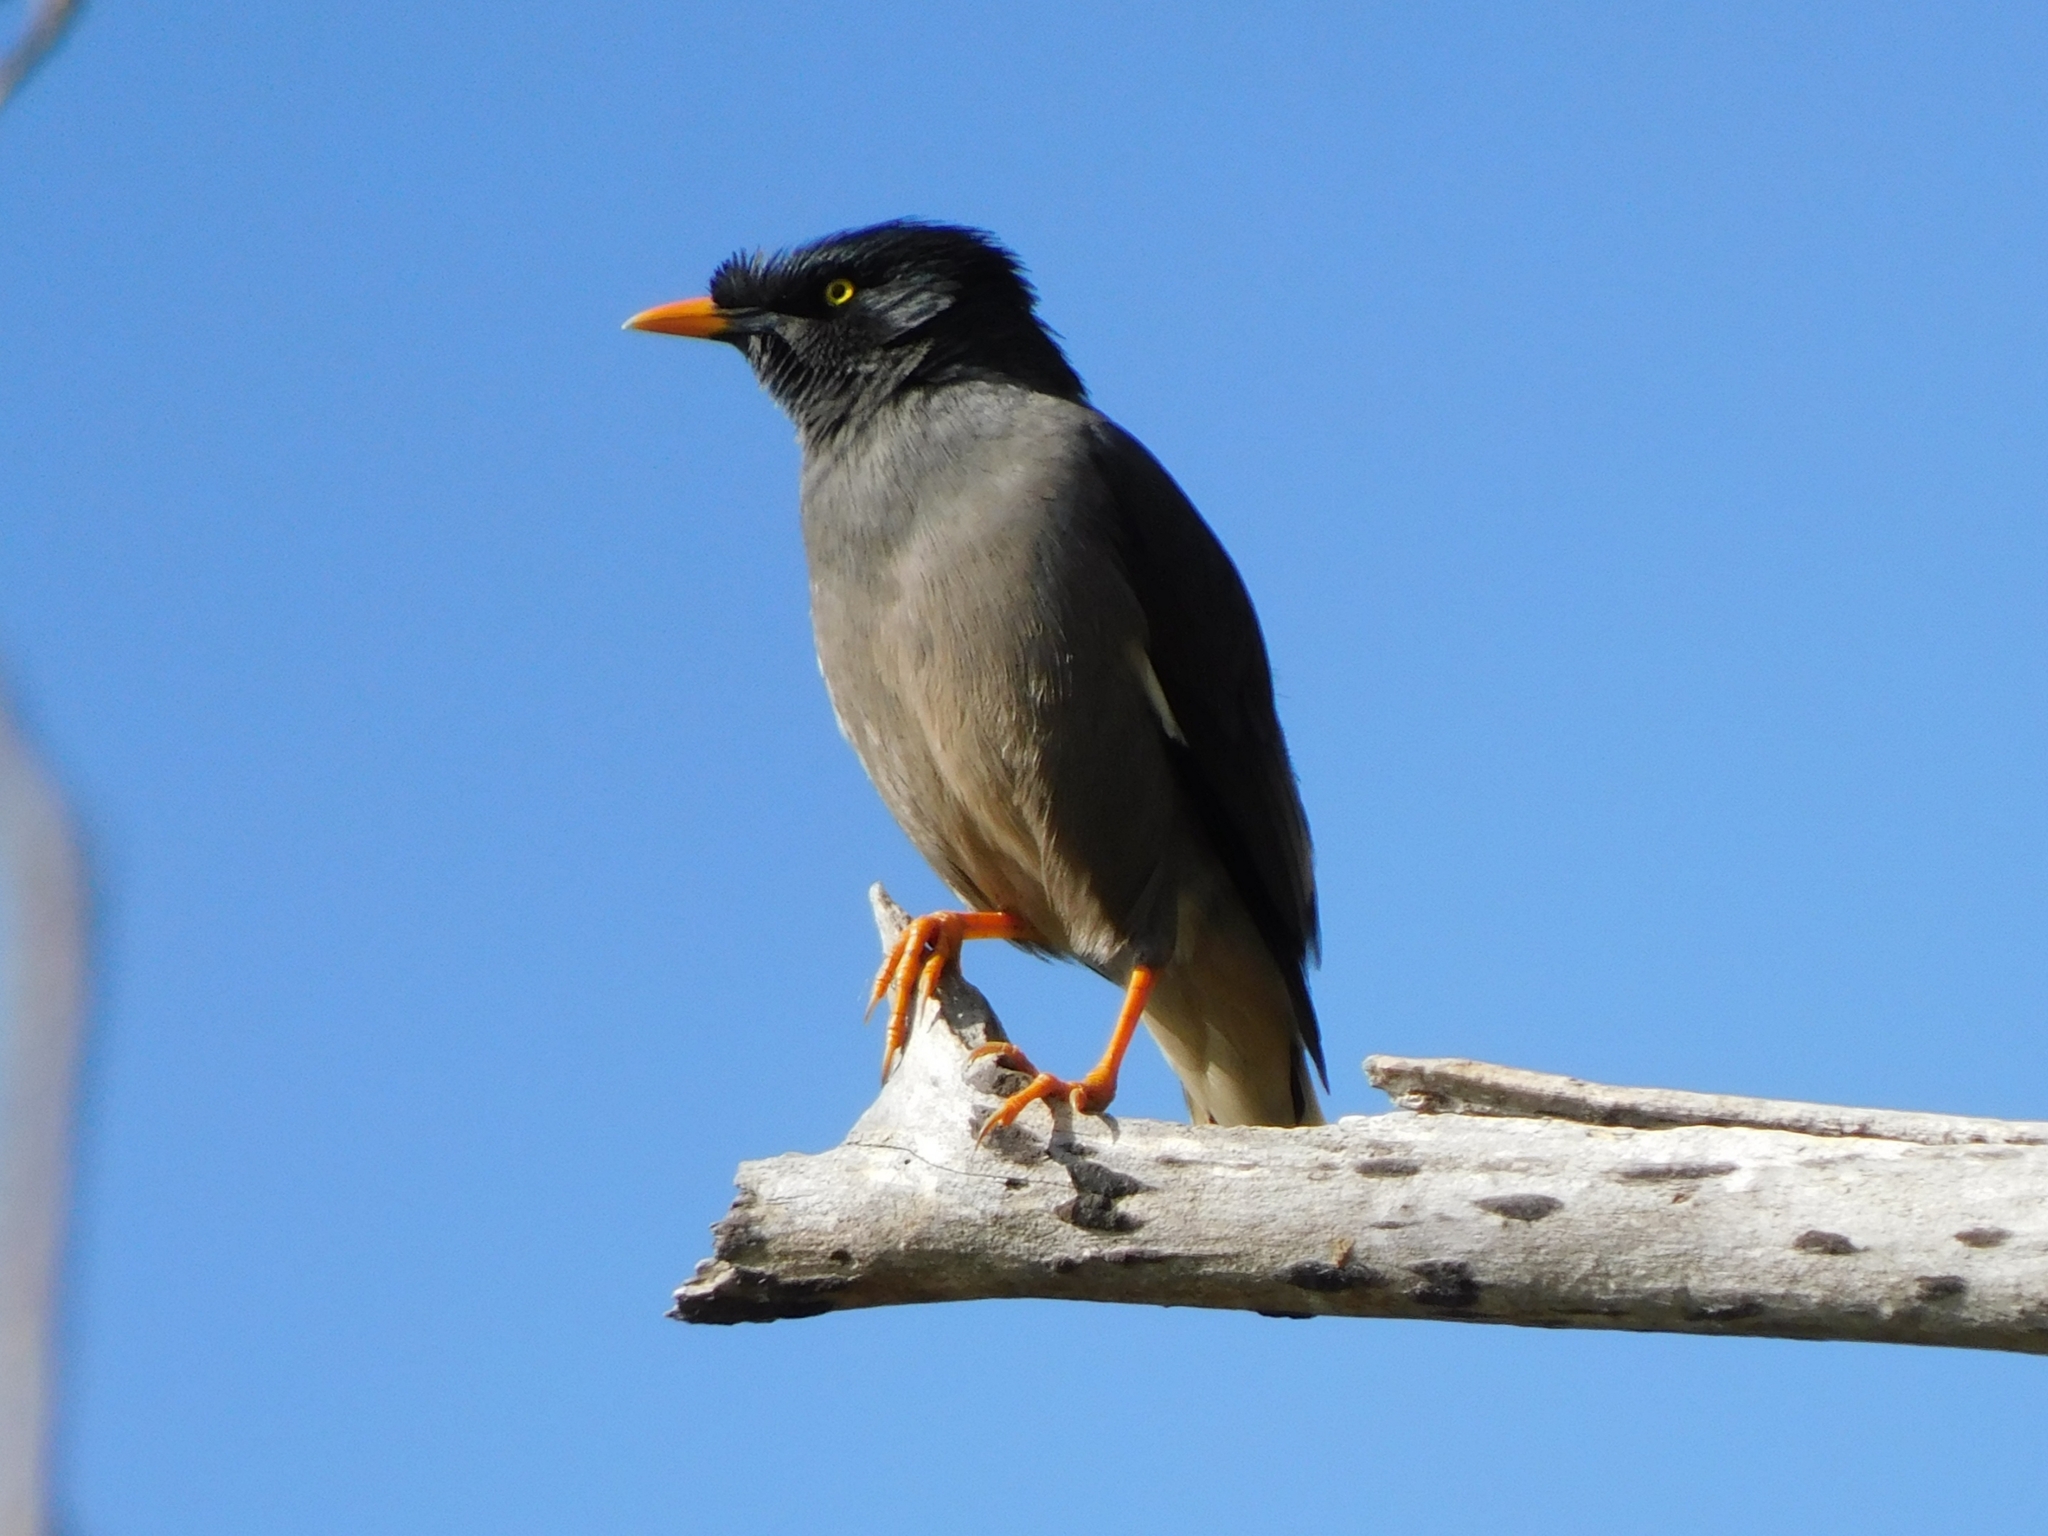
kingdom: Animalia
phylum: Chordata
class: Aves
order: Passeriformes
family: Sturnidae
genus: Acridotheres
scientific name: Acridotheres fuscus
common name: Jungle myna
